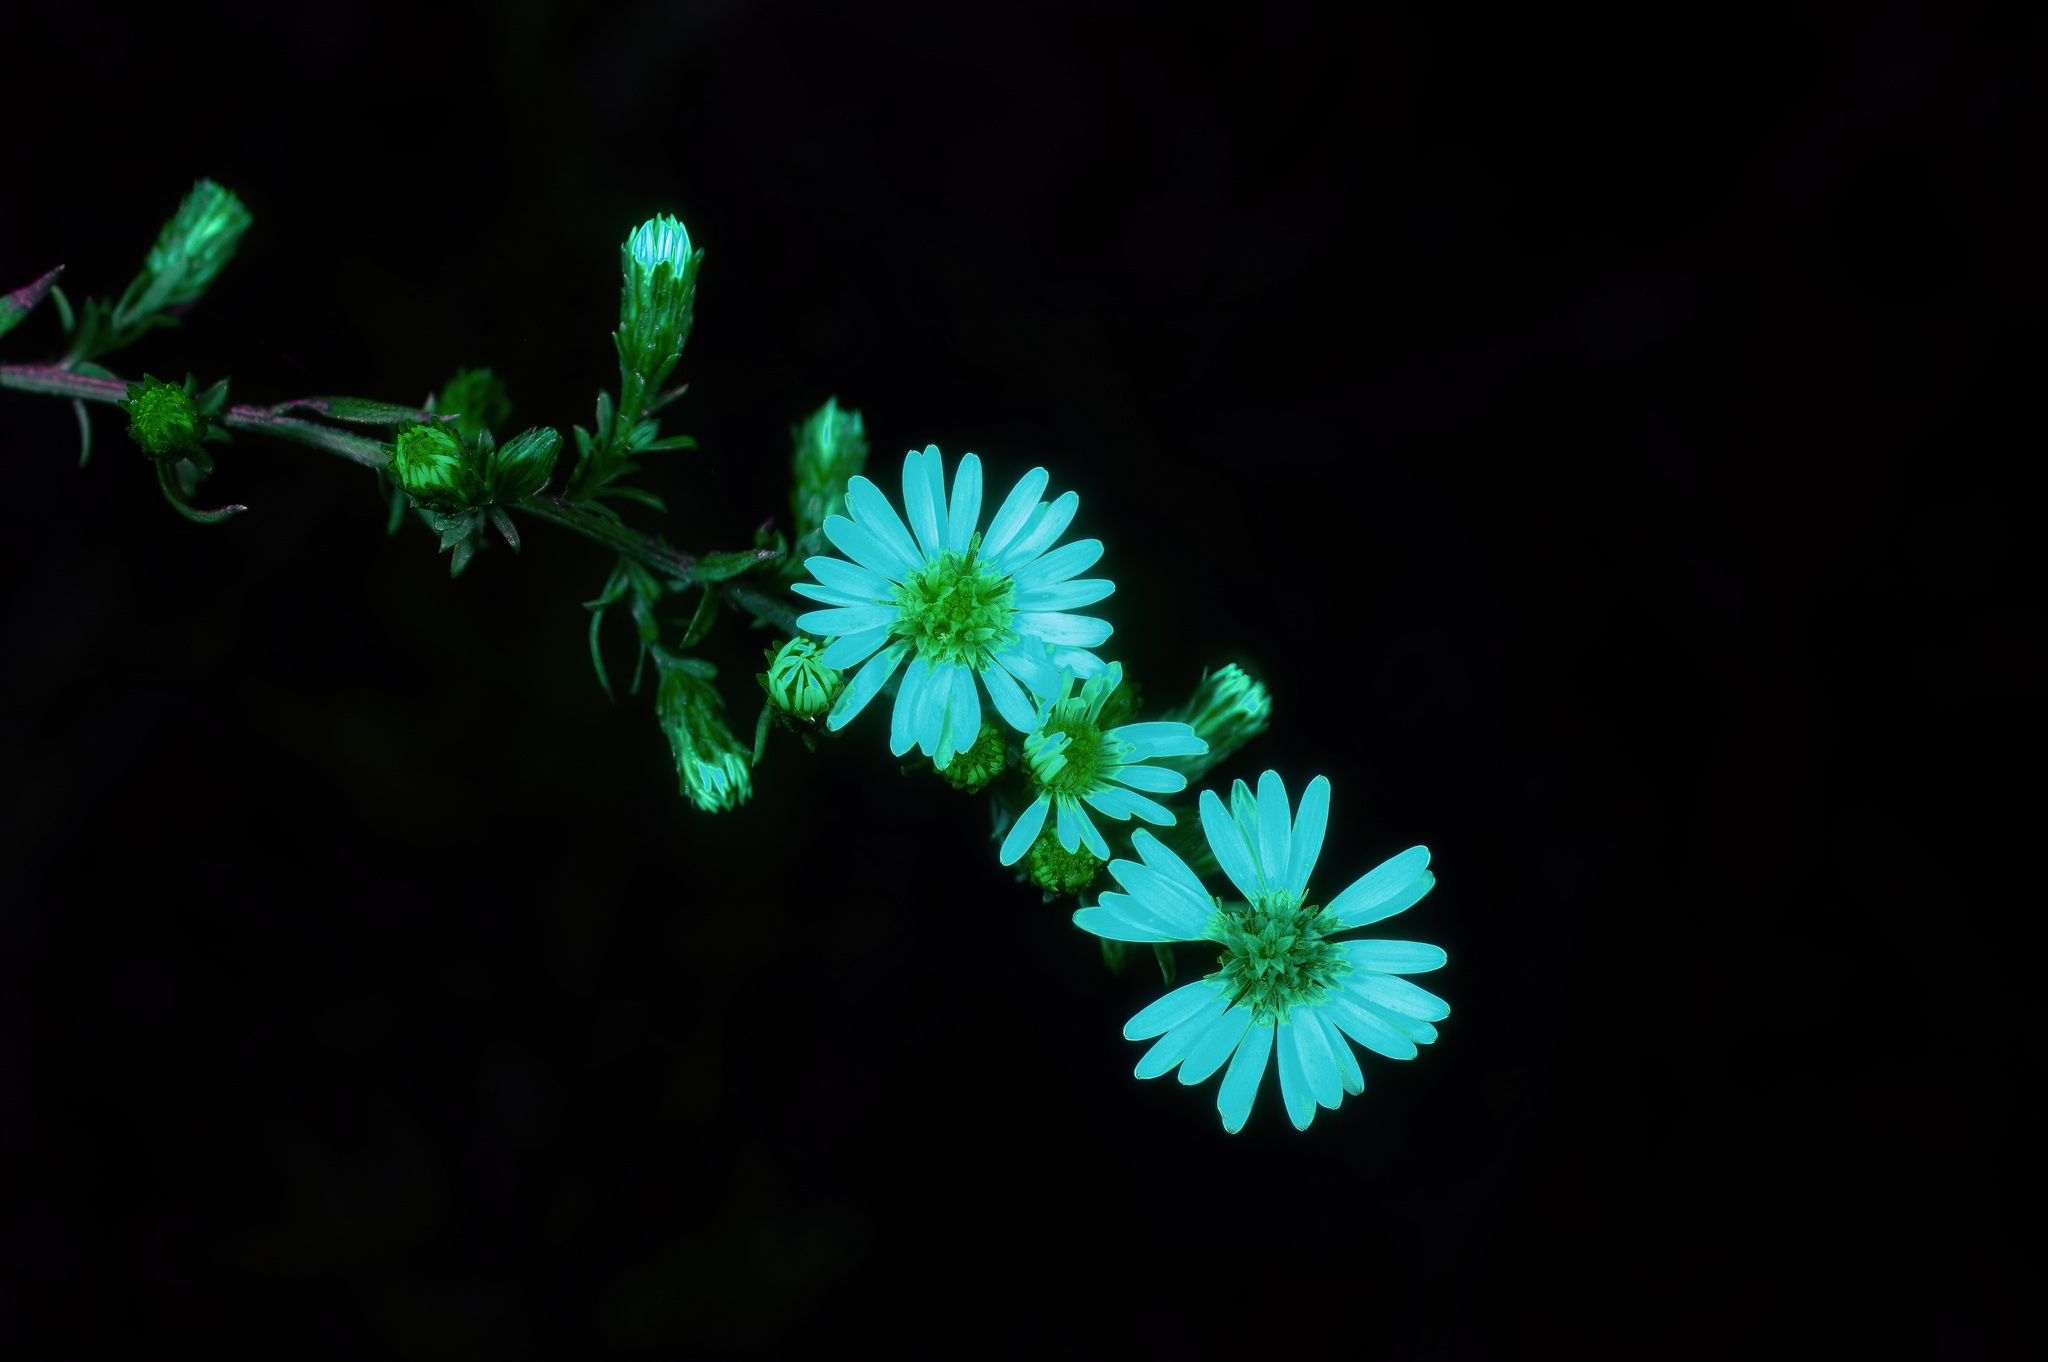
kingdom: Plantae
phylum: Tracheophyta
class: Magnoliopsida
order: Asterales
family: Asteraceae
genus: Symphyotrichum
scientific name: Symphyotrichum ericoides
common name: Heath aster
